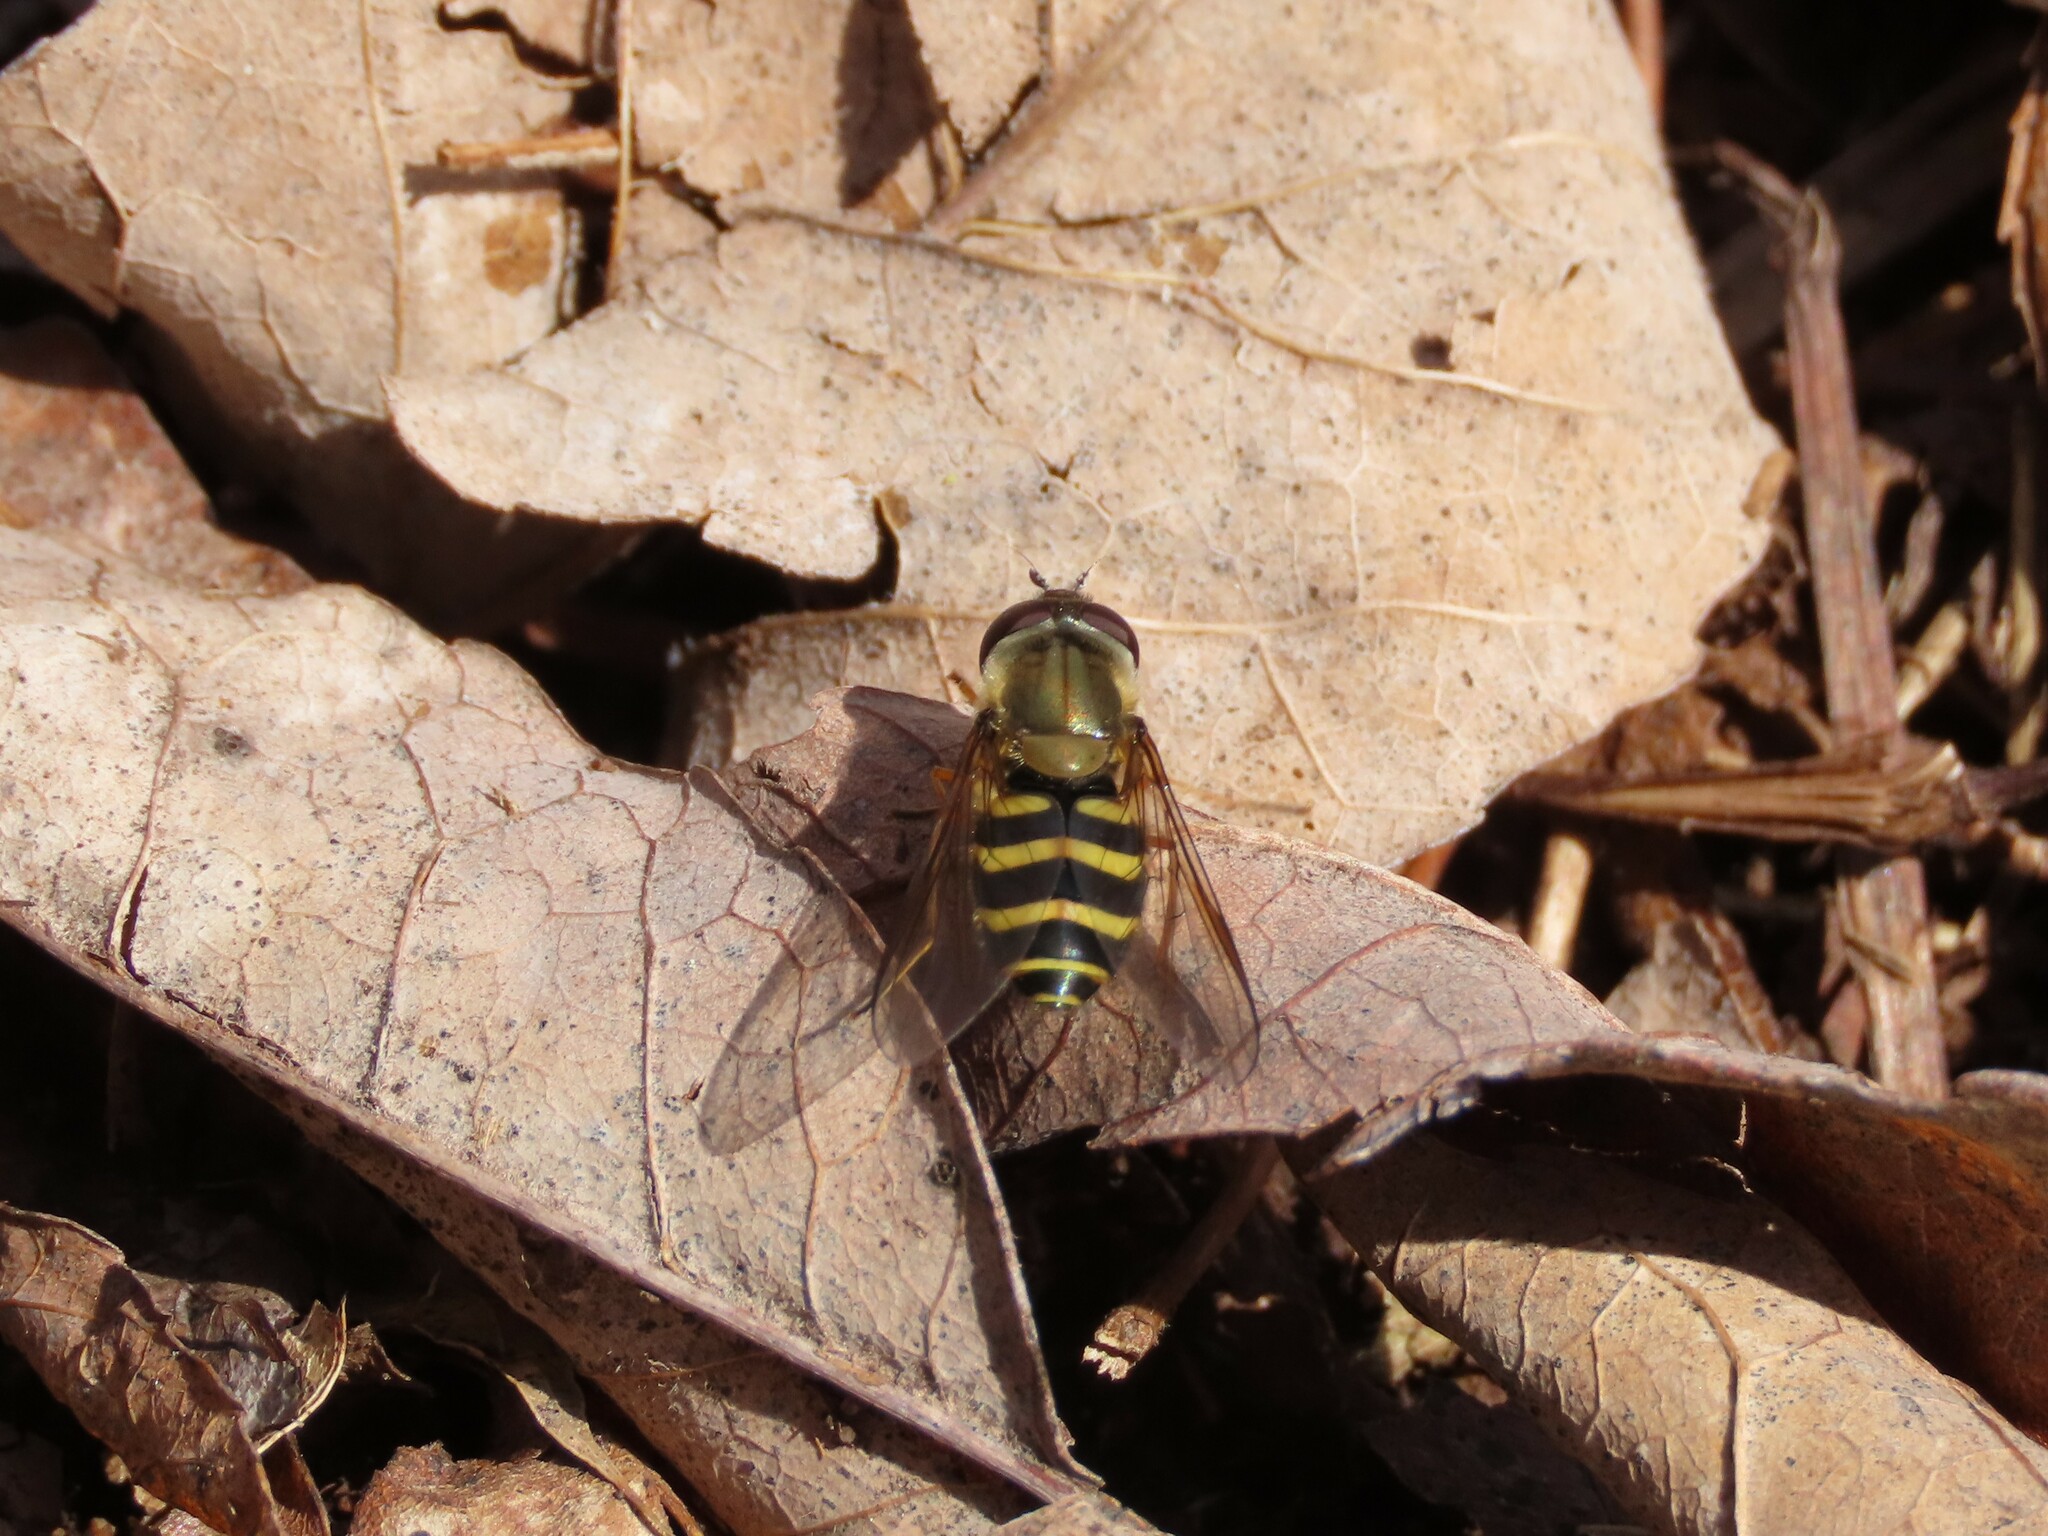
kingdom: Animalia
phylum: Arthropoda
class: Insecta
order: Diptera
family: Syrphidae
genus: Syrphus
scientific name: Syrphus
